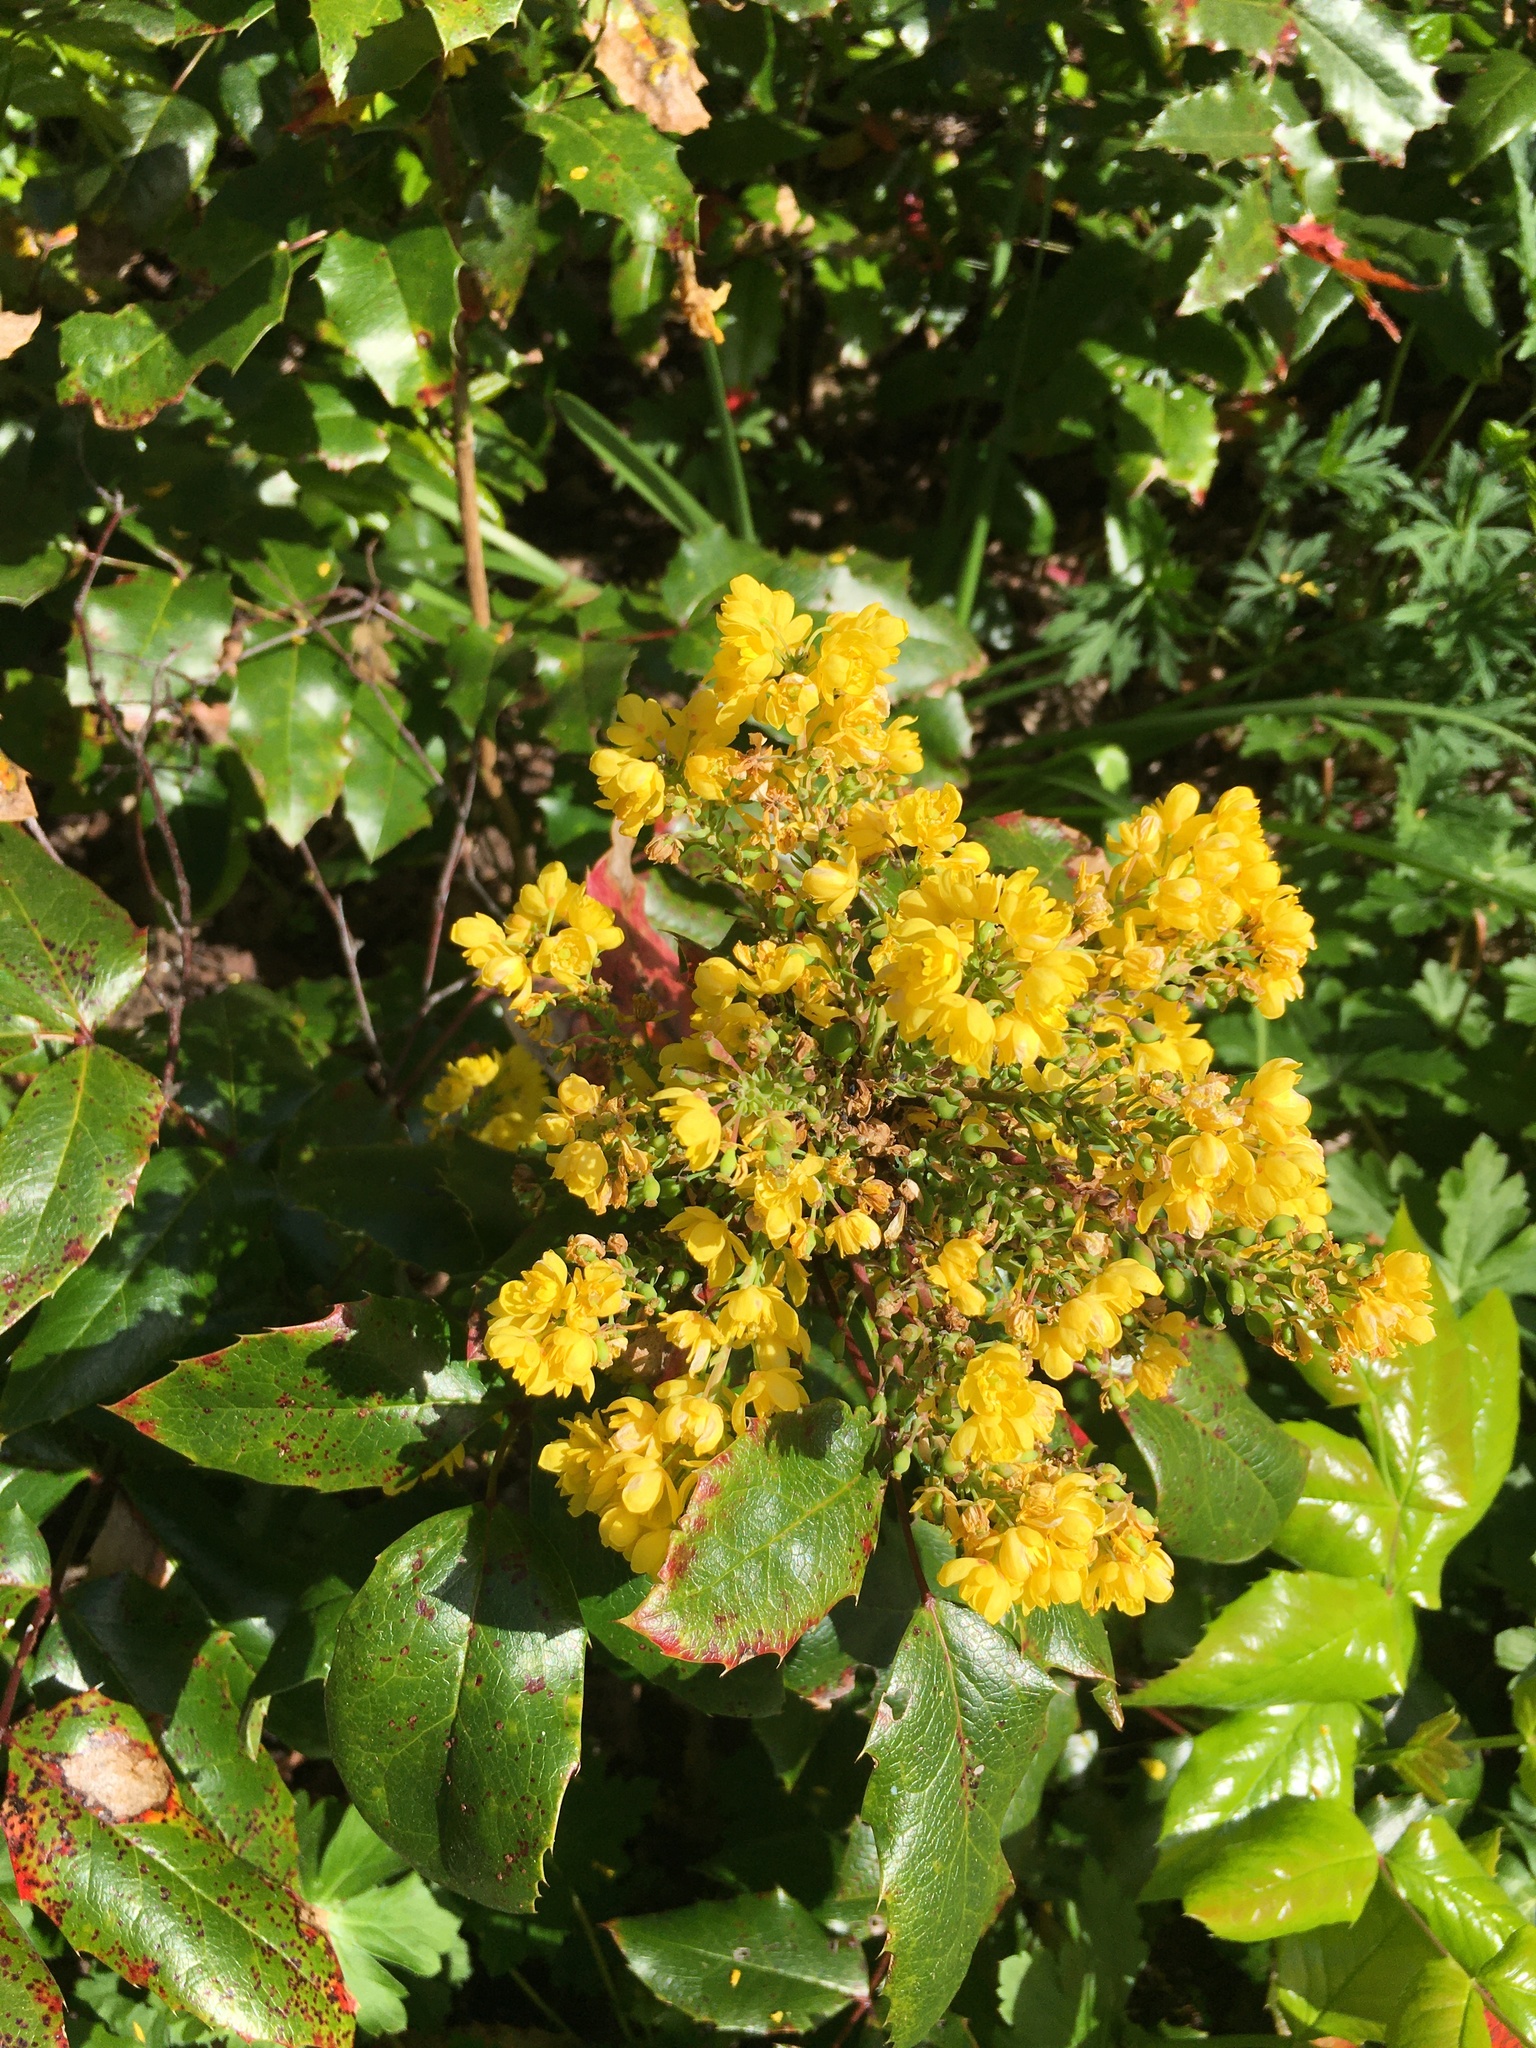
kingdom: Plantae
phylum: Tracheophyta
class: Magnoliopsida
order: Ranunculales
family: Berberidaceae
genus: Mahonia
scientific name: Mahonia aquifolium
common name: Oregon-grape
